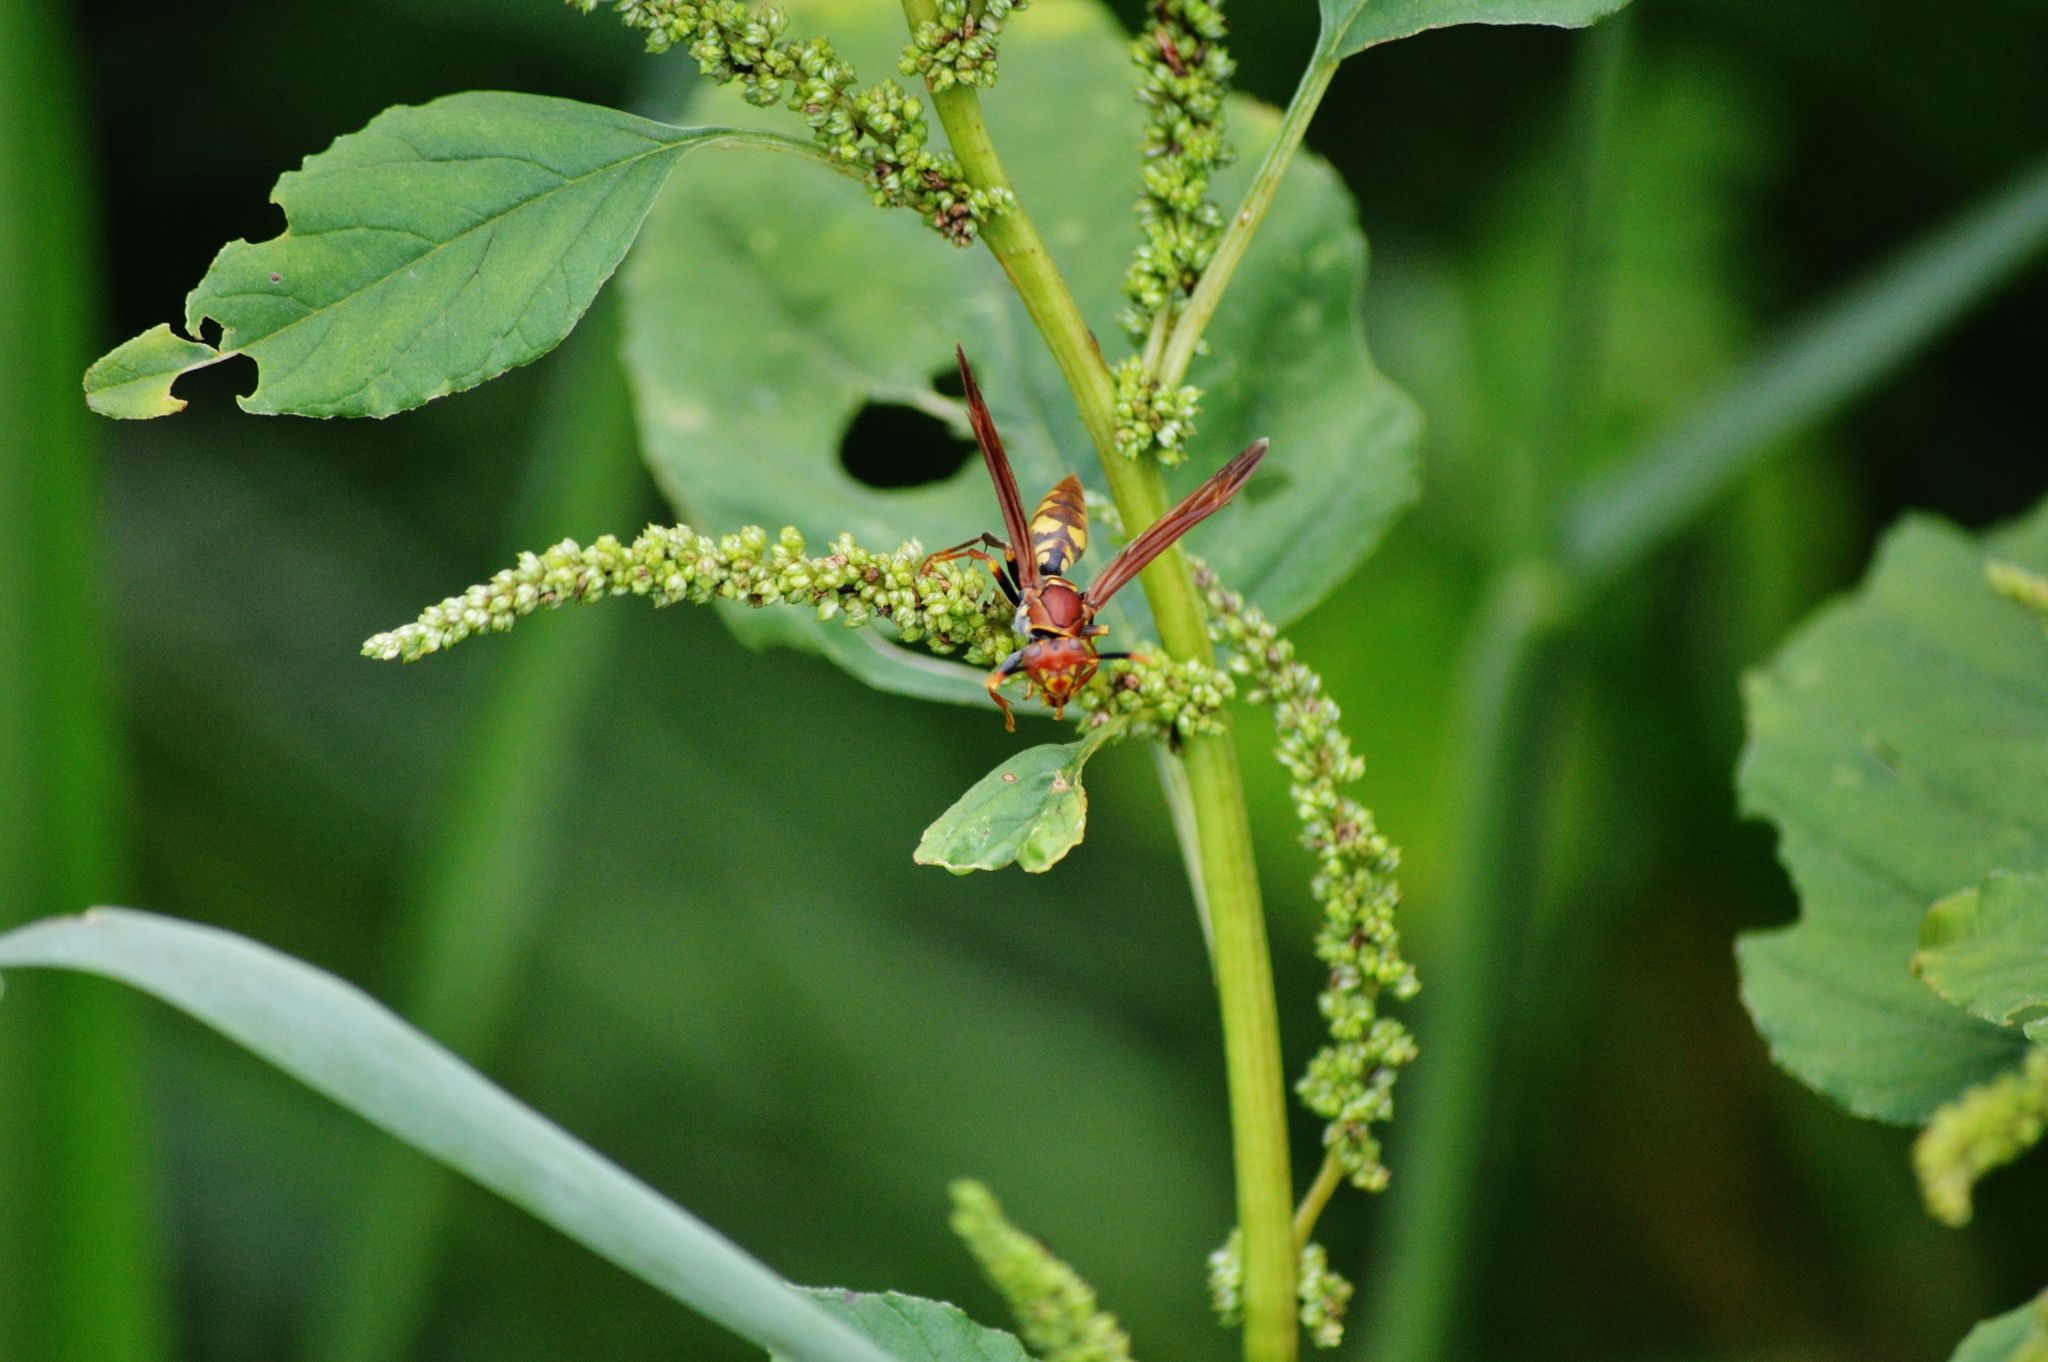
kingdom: Animalia
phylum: Arthropoda
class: Insecta
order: Hymenoptera
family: Eumenidae
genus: Polistes
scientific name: Polistes versicolor
